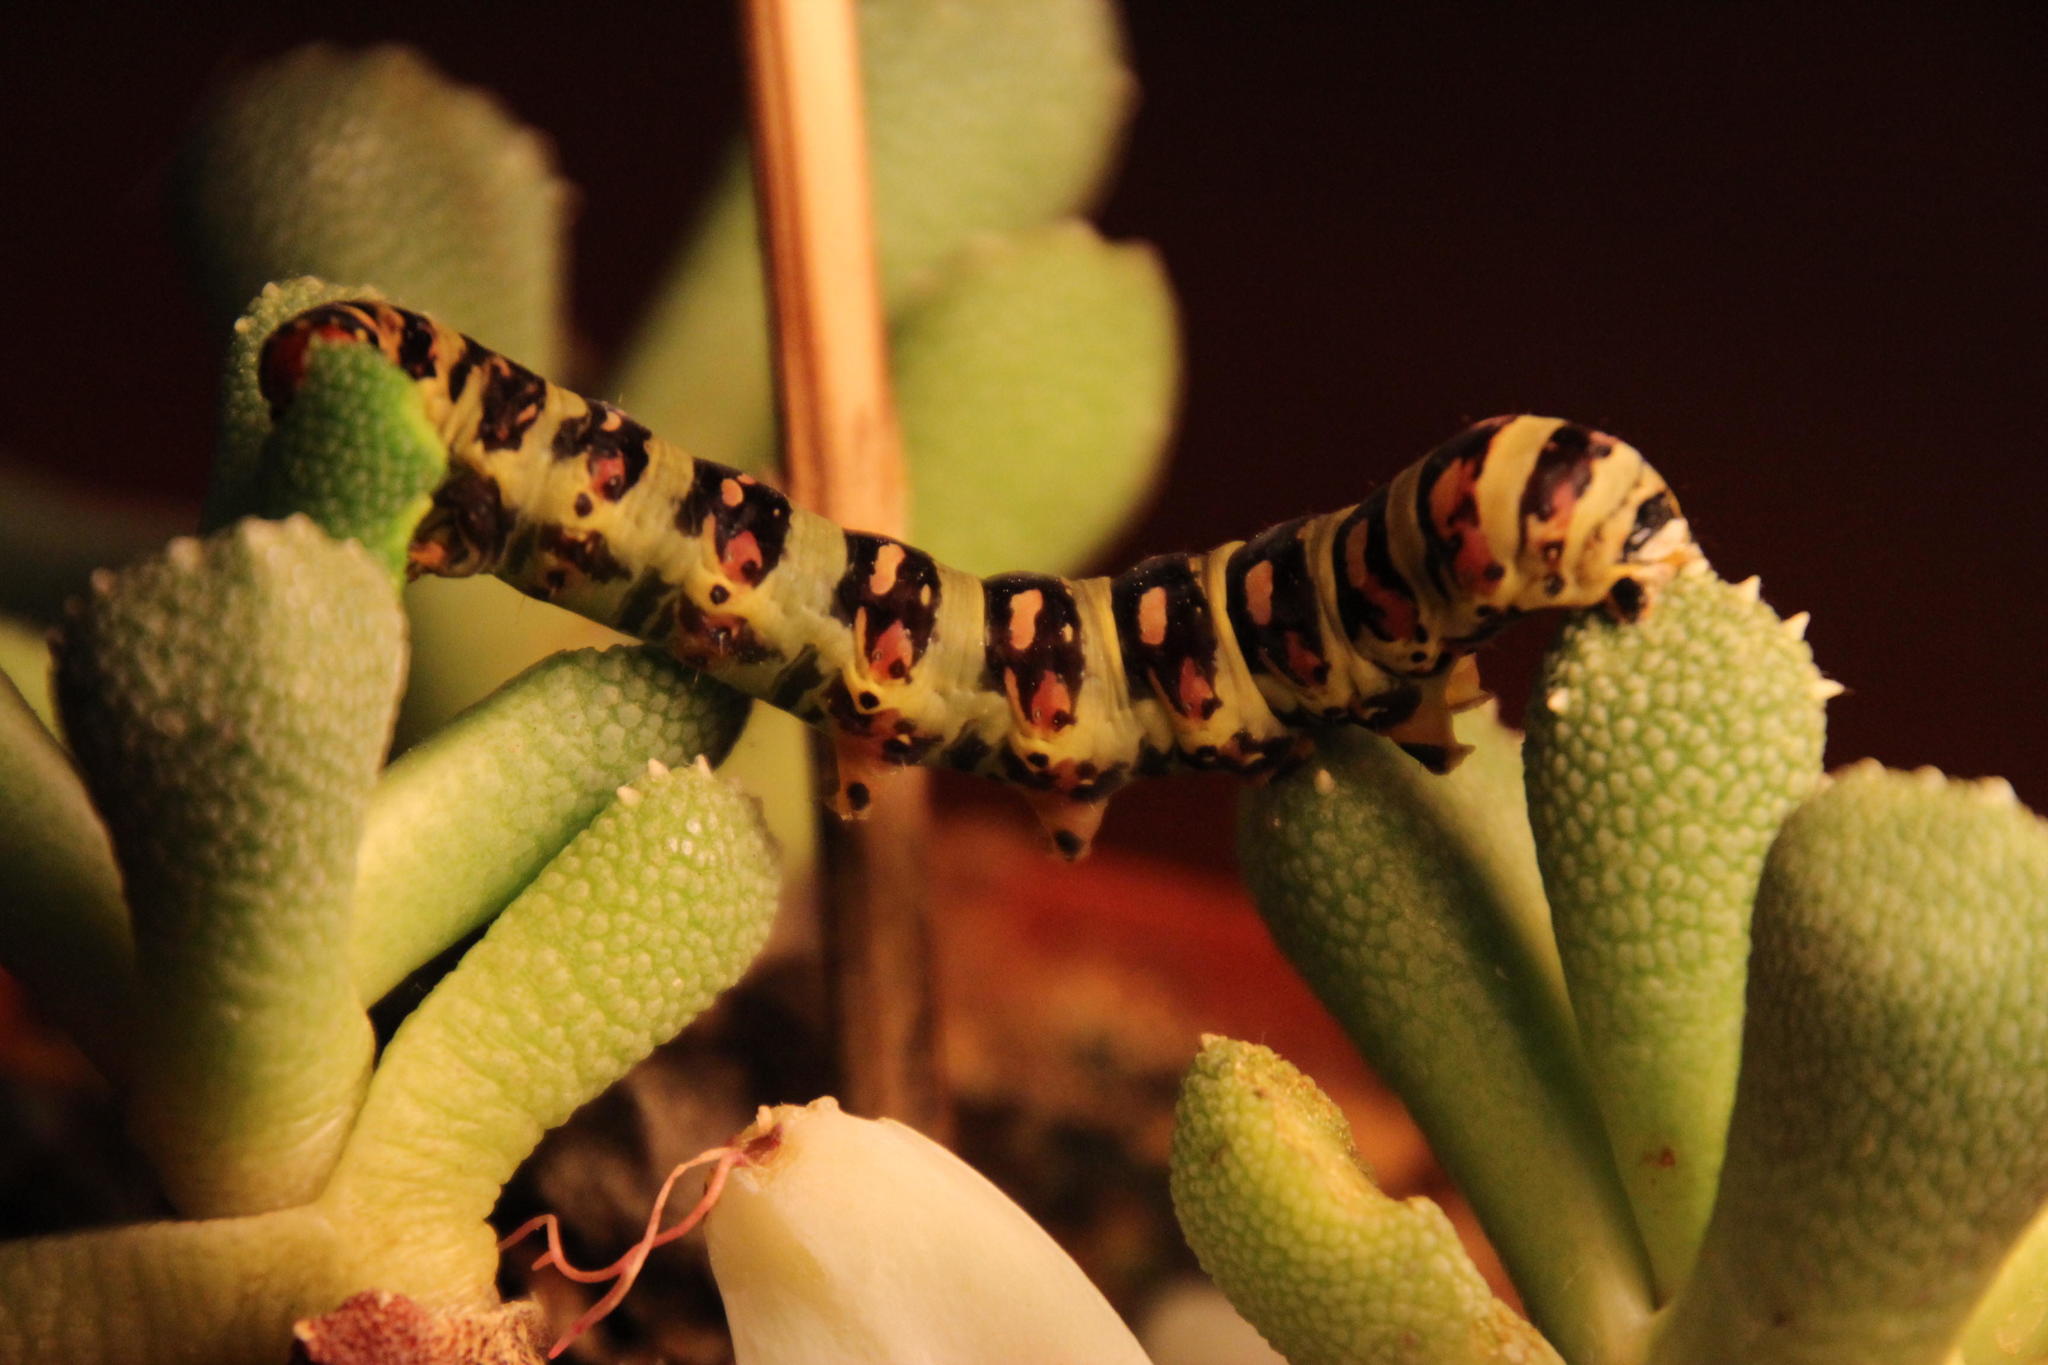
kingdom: Animalia
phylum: Arthropoda
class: Insecta
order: Lepidoptera
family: Noctuidae
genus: Diaphone
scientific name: Diaphone eumela
